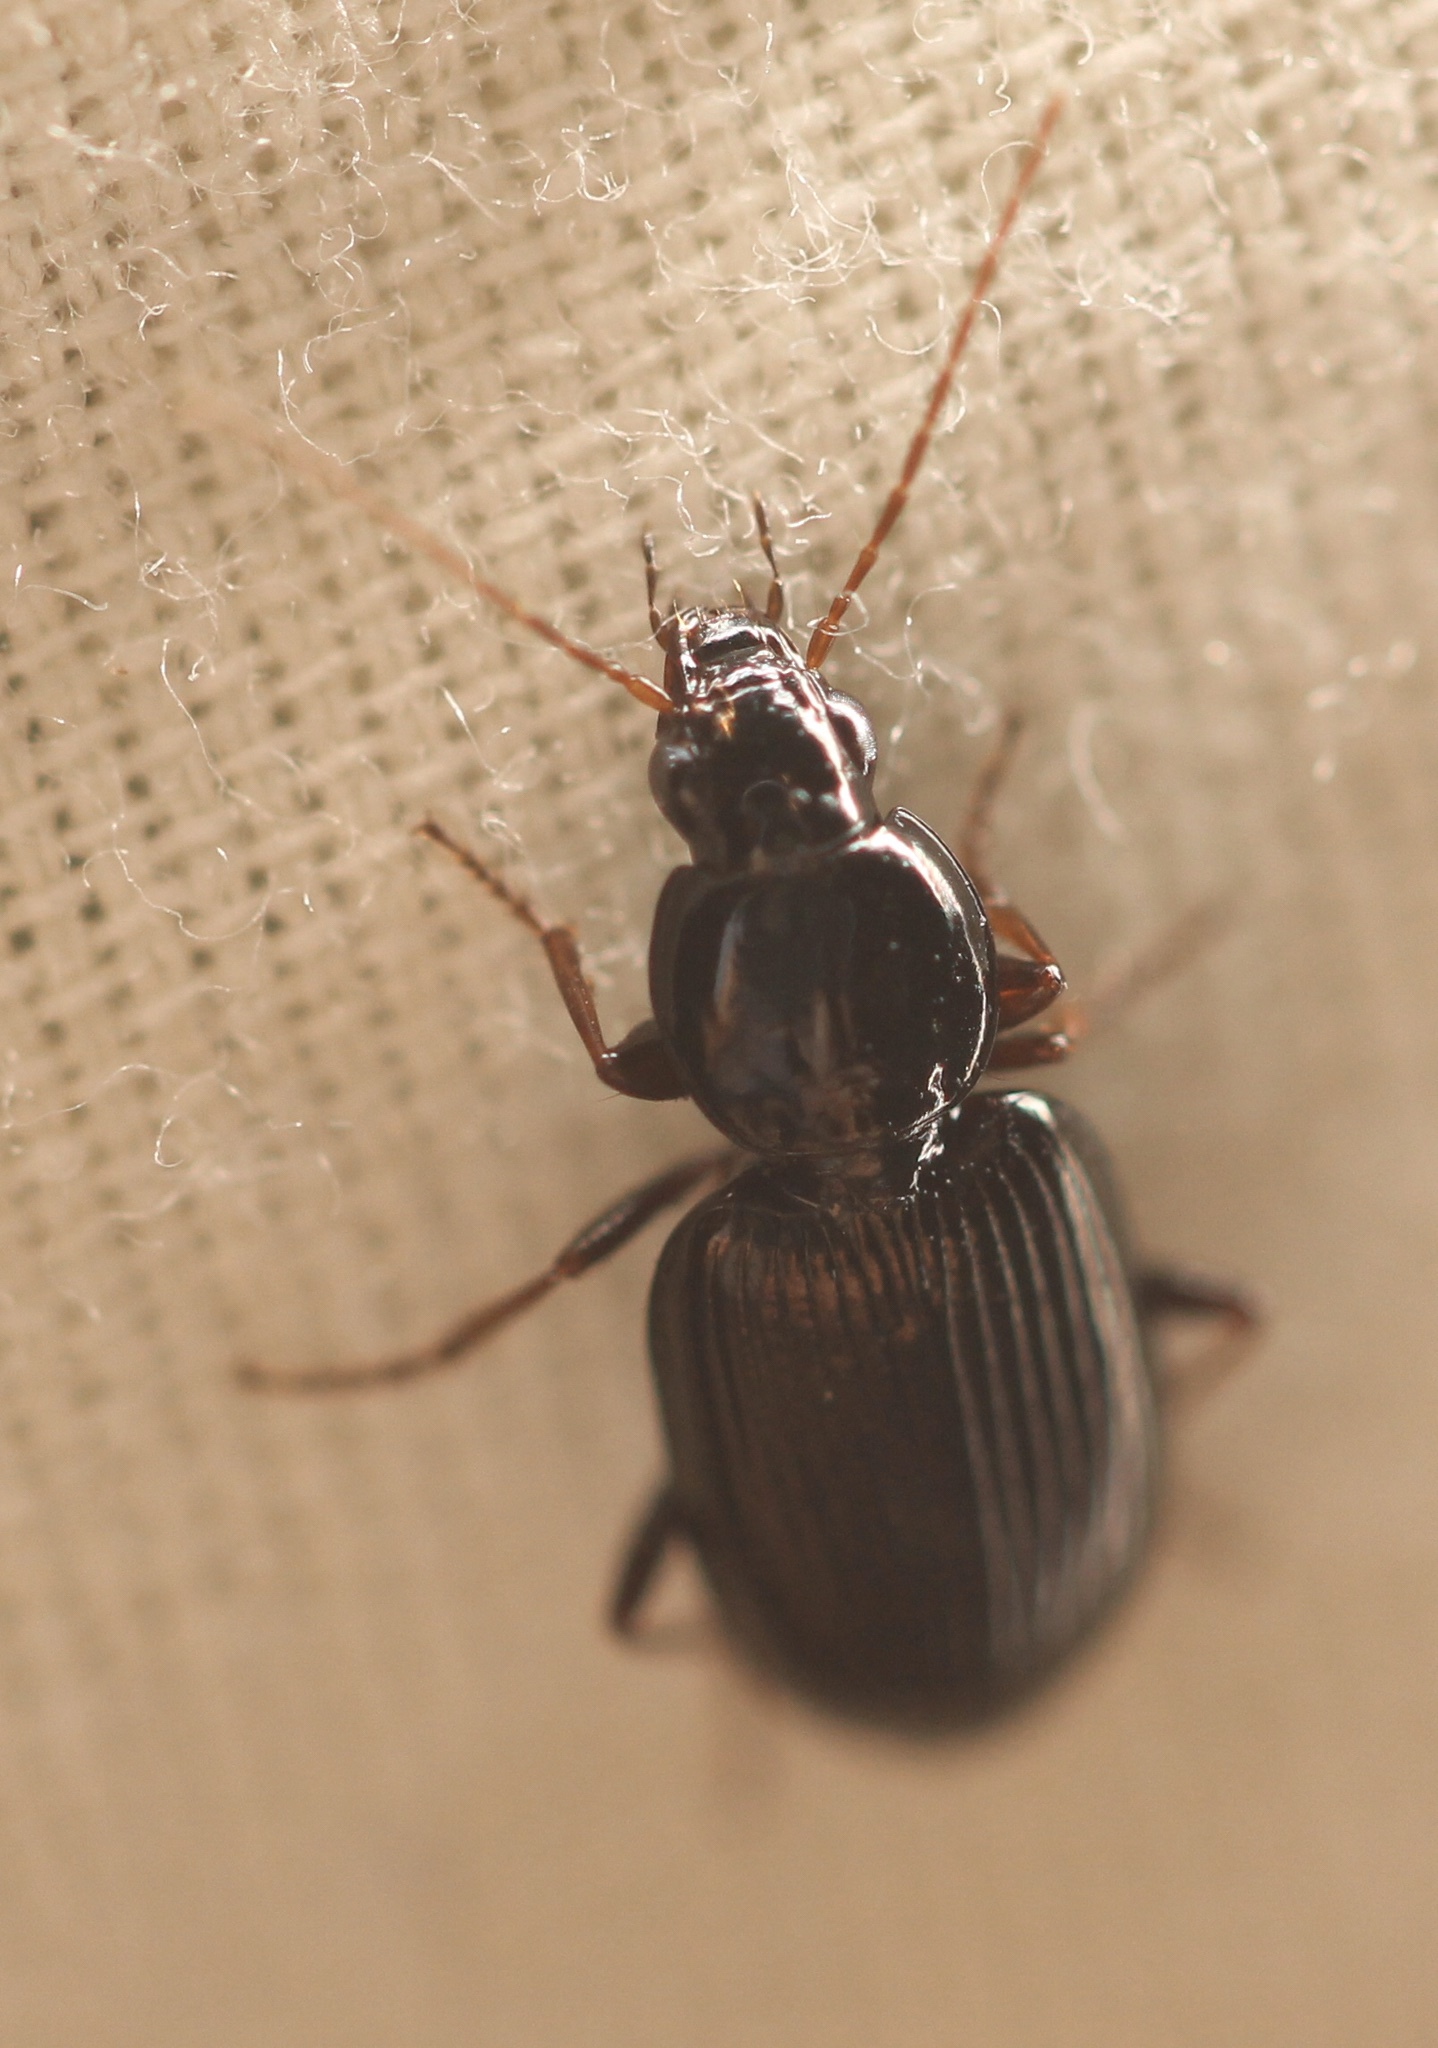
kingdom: Animalia
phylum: Arthropoda
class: Insecta
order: Coleoptera
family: Carabidae
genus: Agonum
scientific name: Agonum punctiforme
